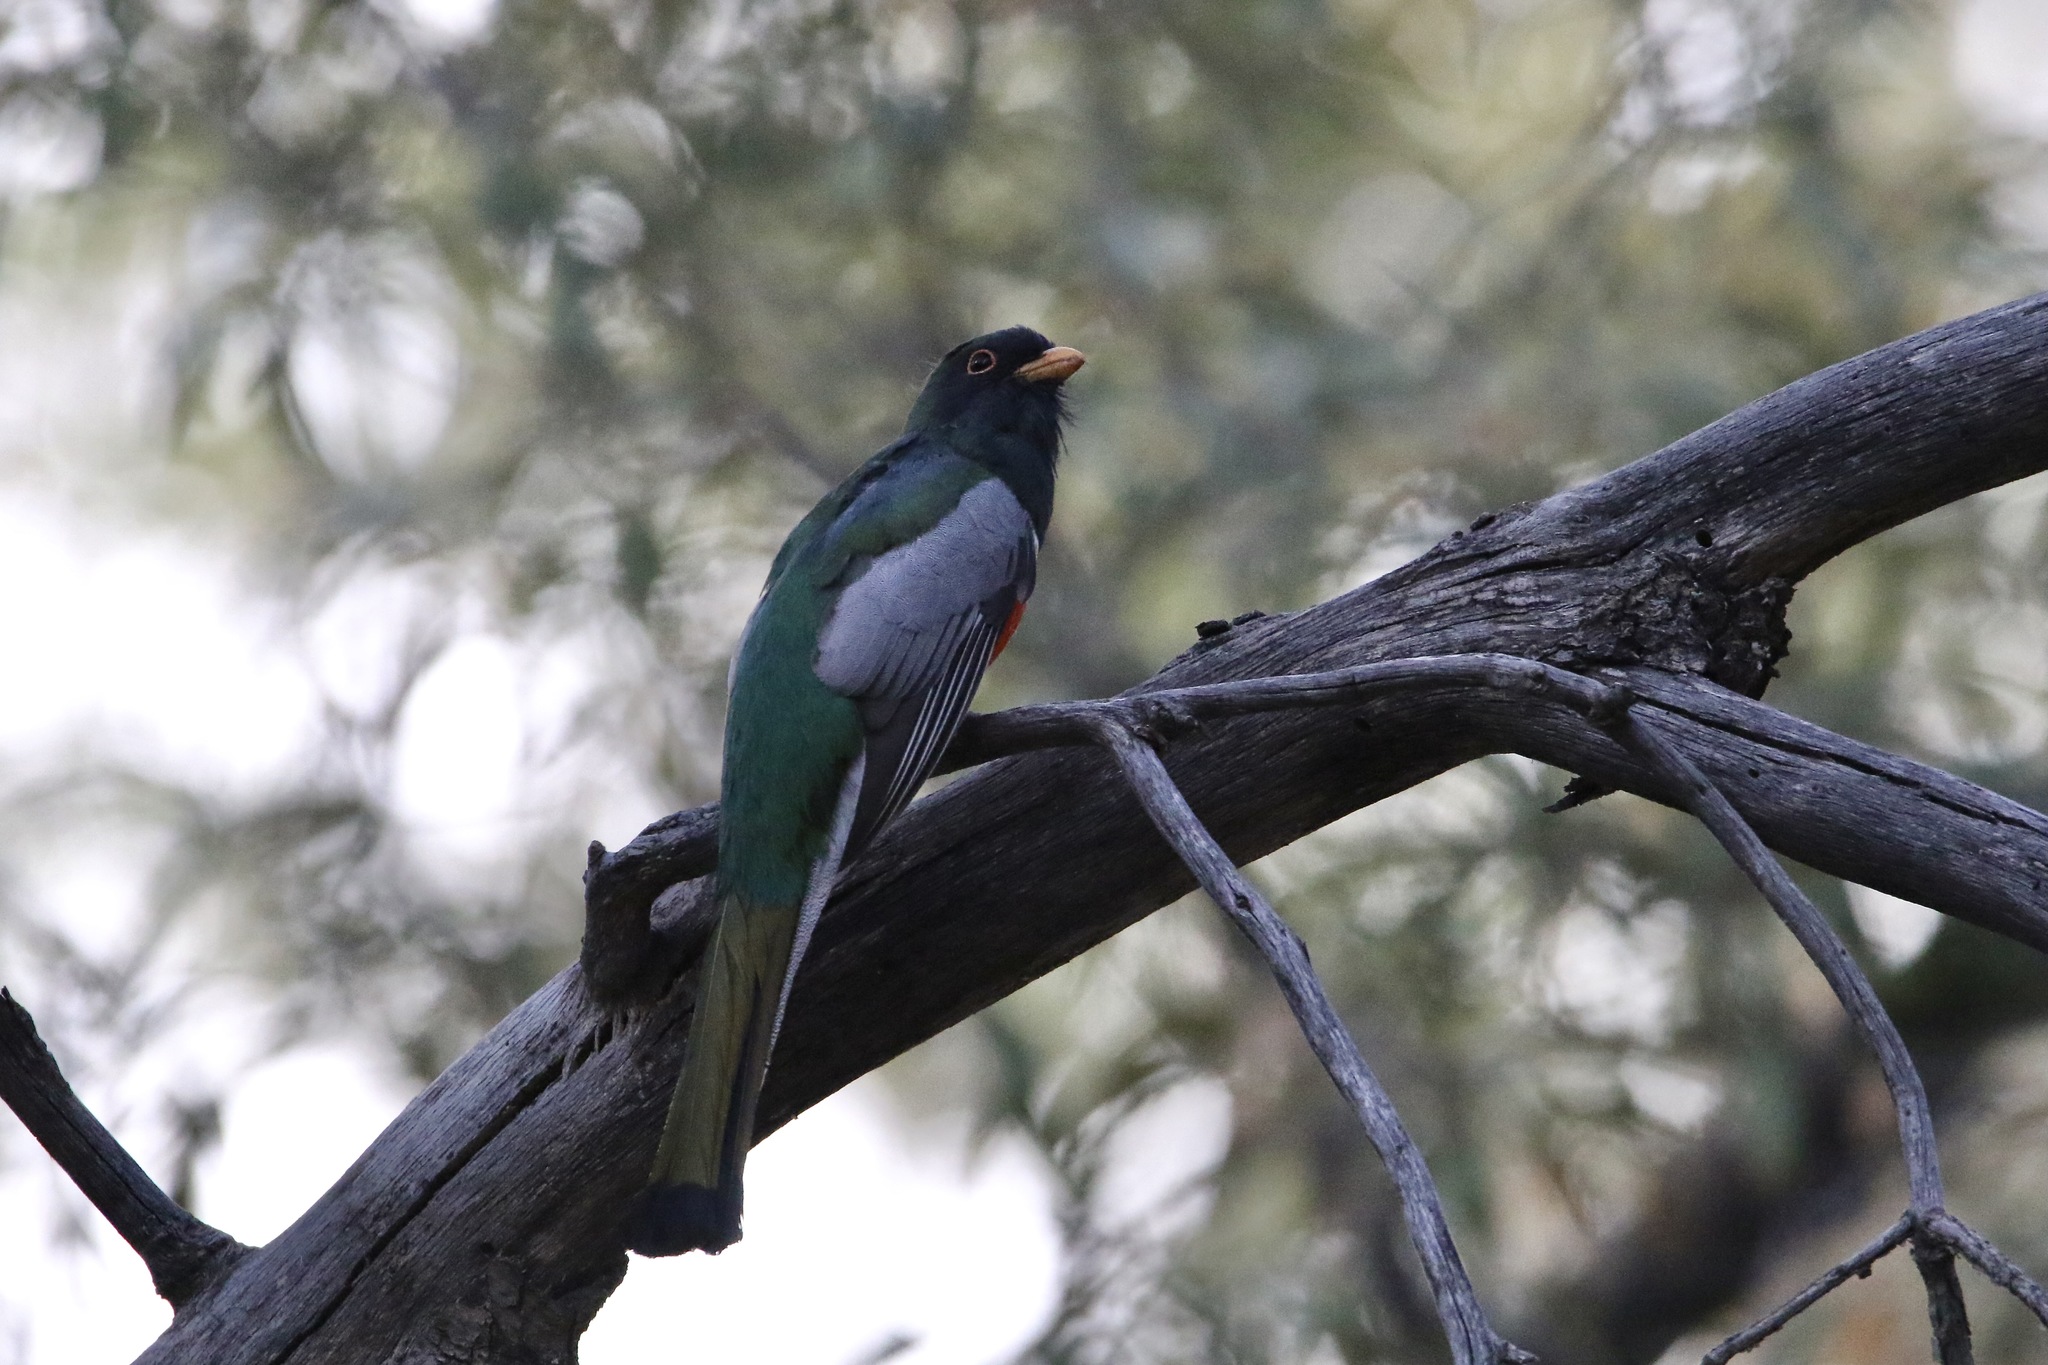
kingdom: Animalia
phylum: Chordata
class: Aves
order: Trogoniformes
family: Trogonidae
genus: Trogon
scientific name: Trogon elegans
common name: Elegant trogon
